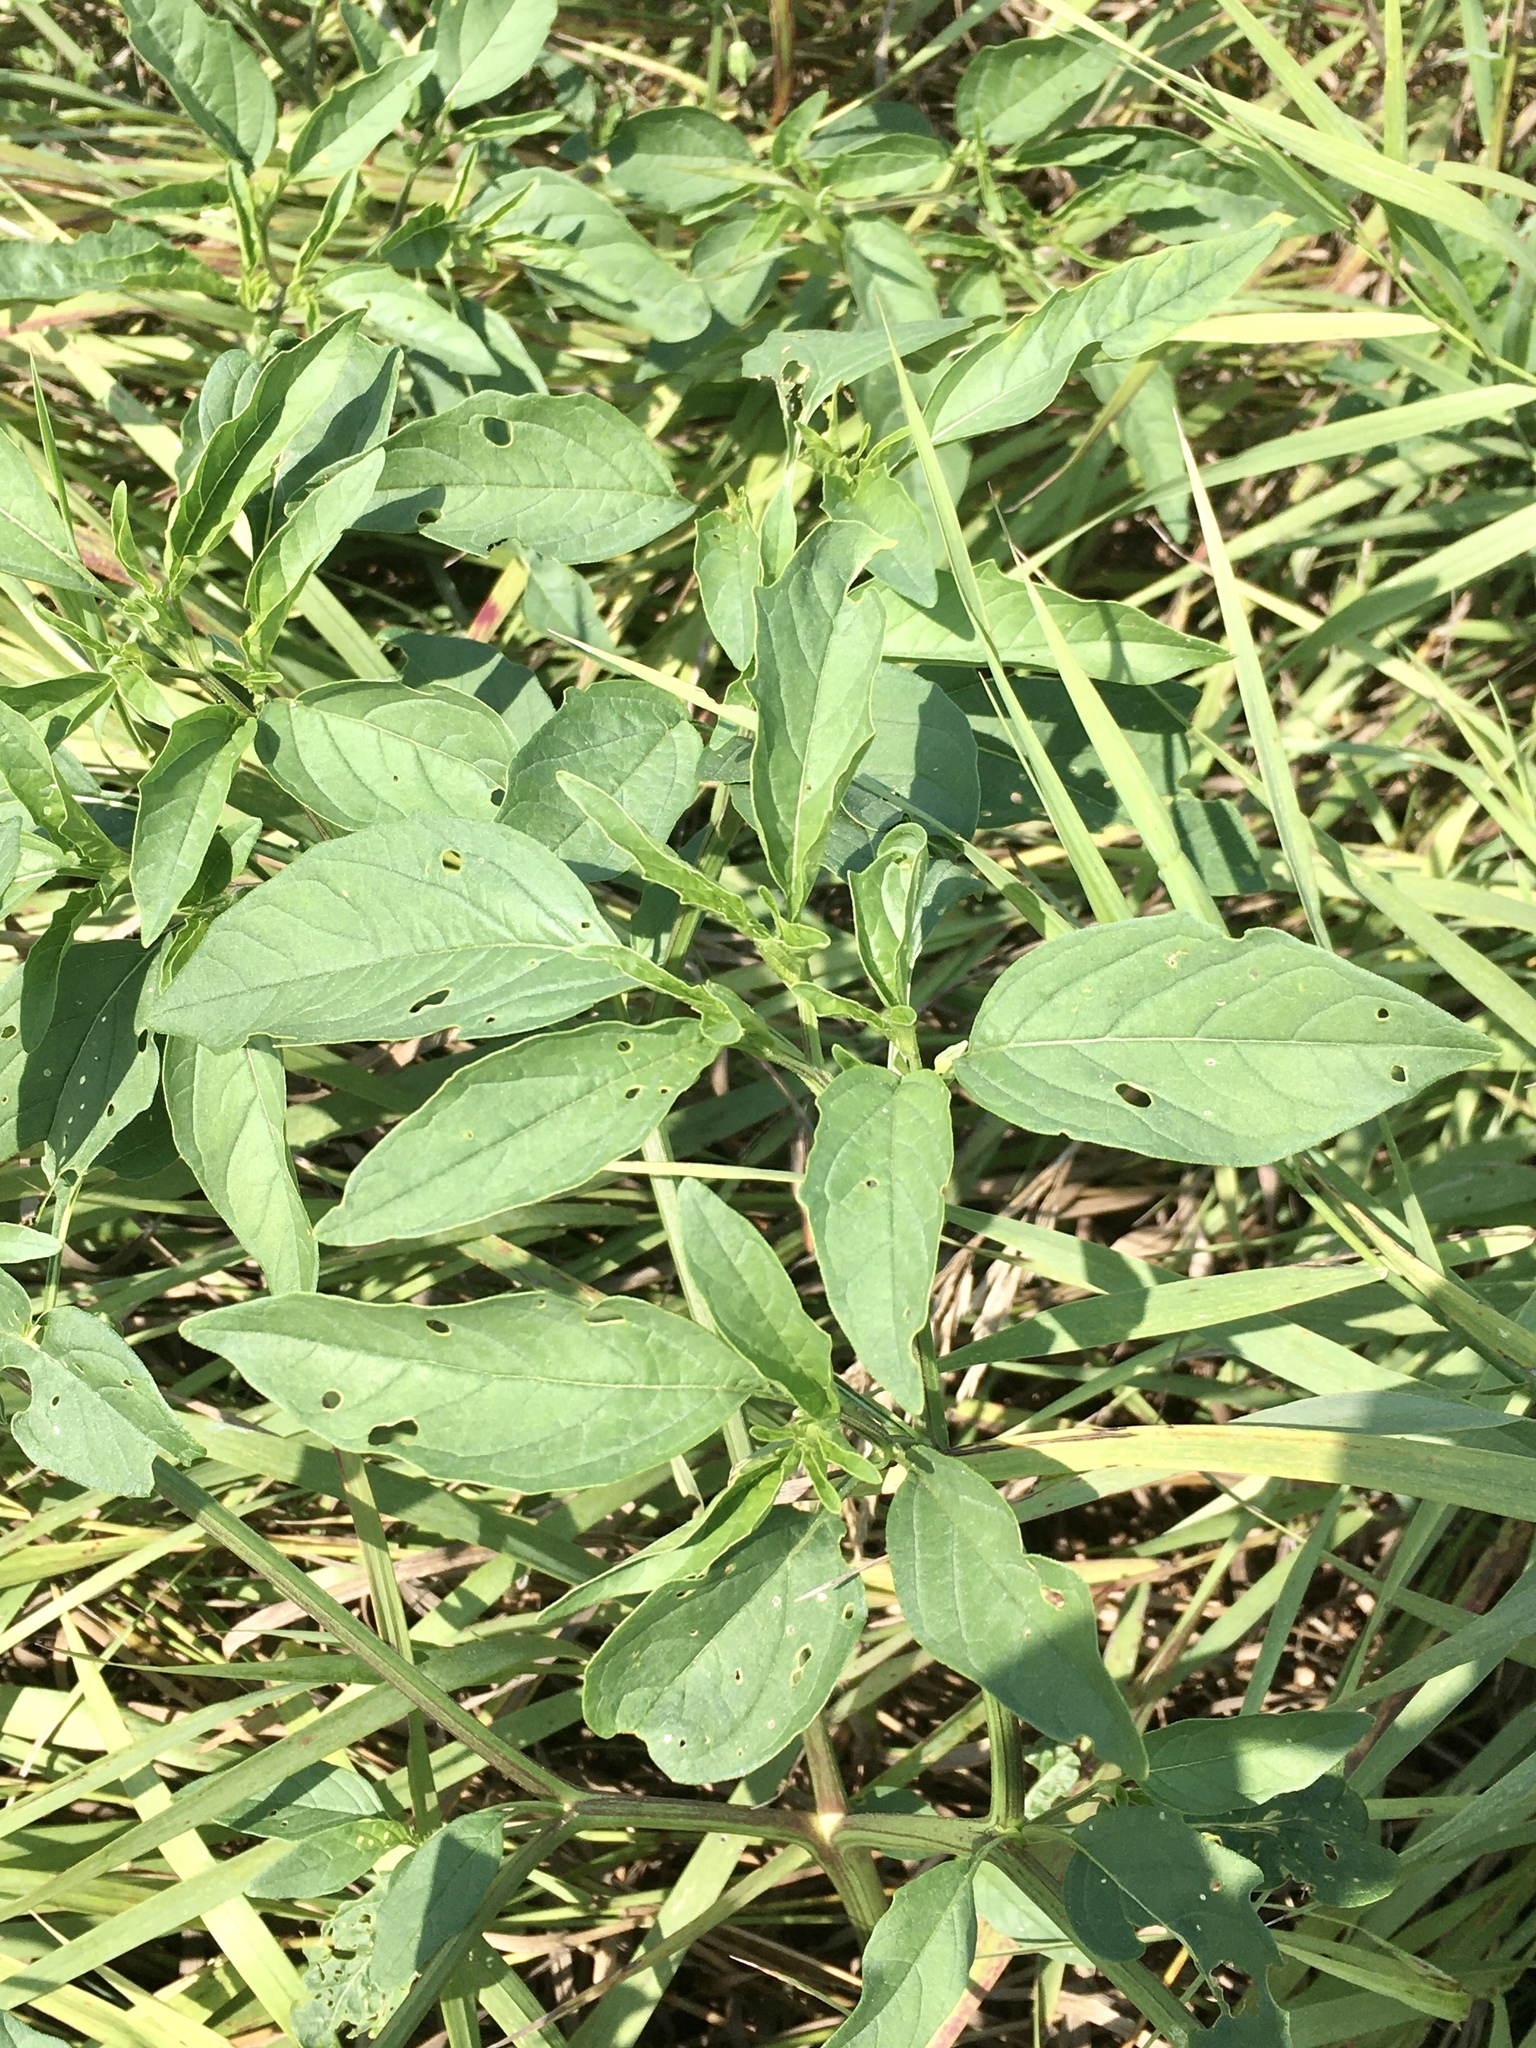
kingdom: Plantae
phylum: Tracheophyta
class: Magnoliopsida
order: Solanales
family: Solanaceae
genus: Physalis
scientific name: Physalis longifolia
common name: Common ground-cherry
